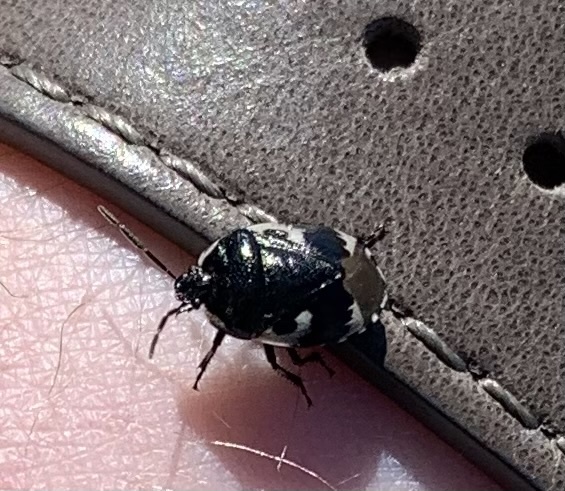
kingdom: Animalia
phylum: Arthropoda
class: Insecta
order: Hemiptera
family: Cydnidae
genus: Tritomegas
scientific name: Tritomegas bicolor
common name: Pied shieldbug
